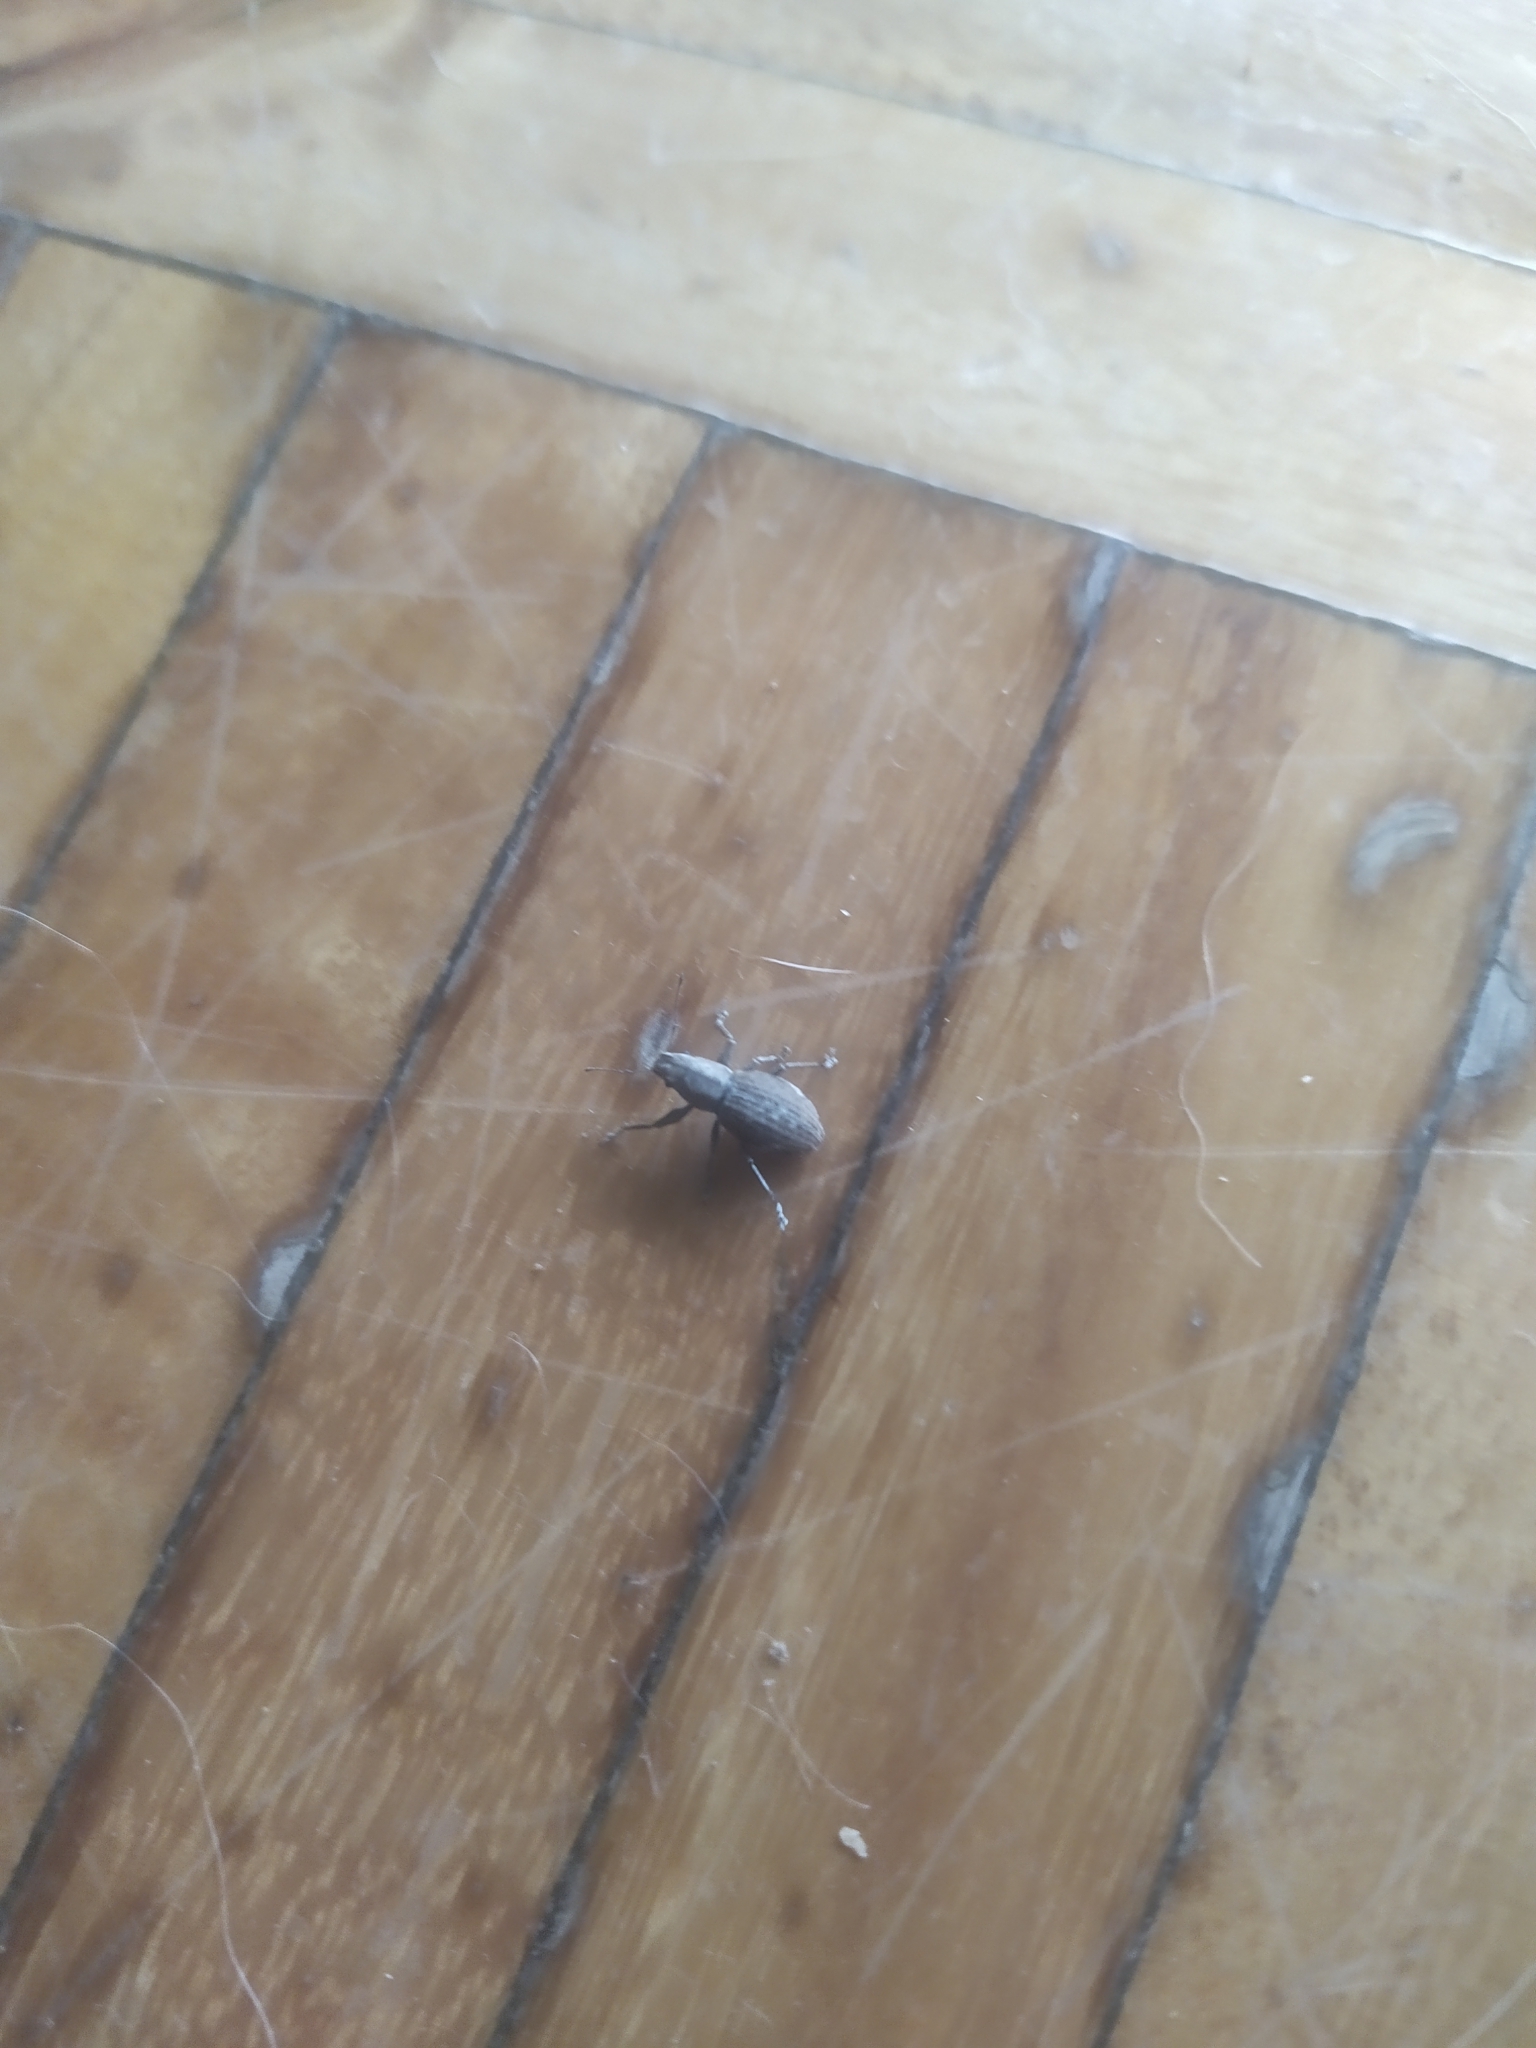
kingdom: Animalia
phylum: Arthropoda
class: Insecta
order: Coleoptera
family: Curculionidae
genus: Naupactus
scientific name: Naupactus cervinus
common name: Fuller rose beetle
